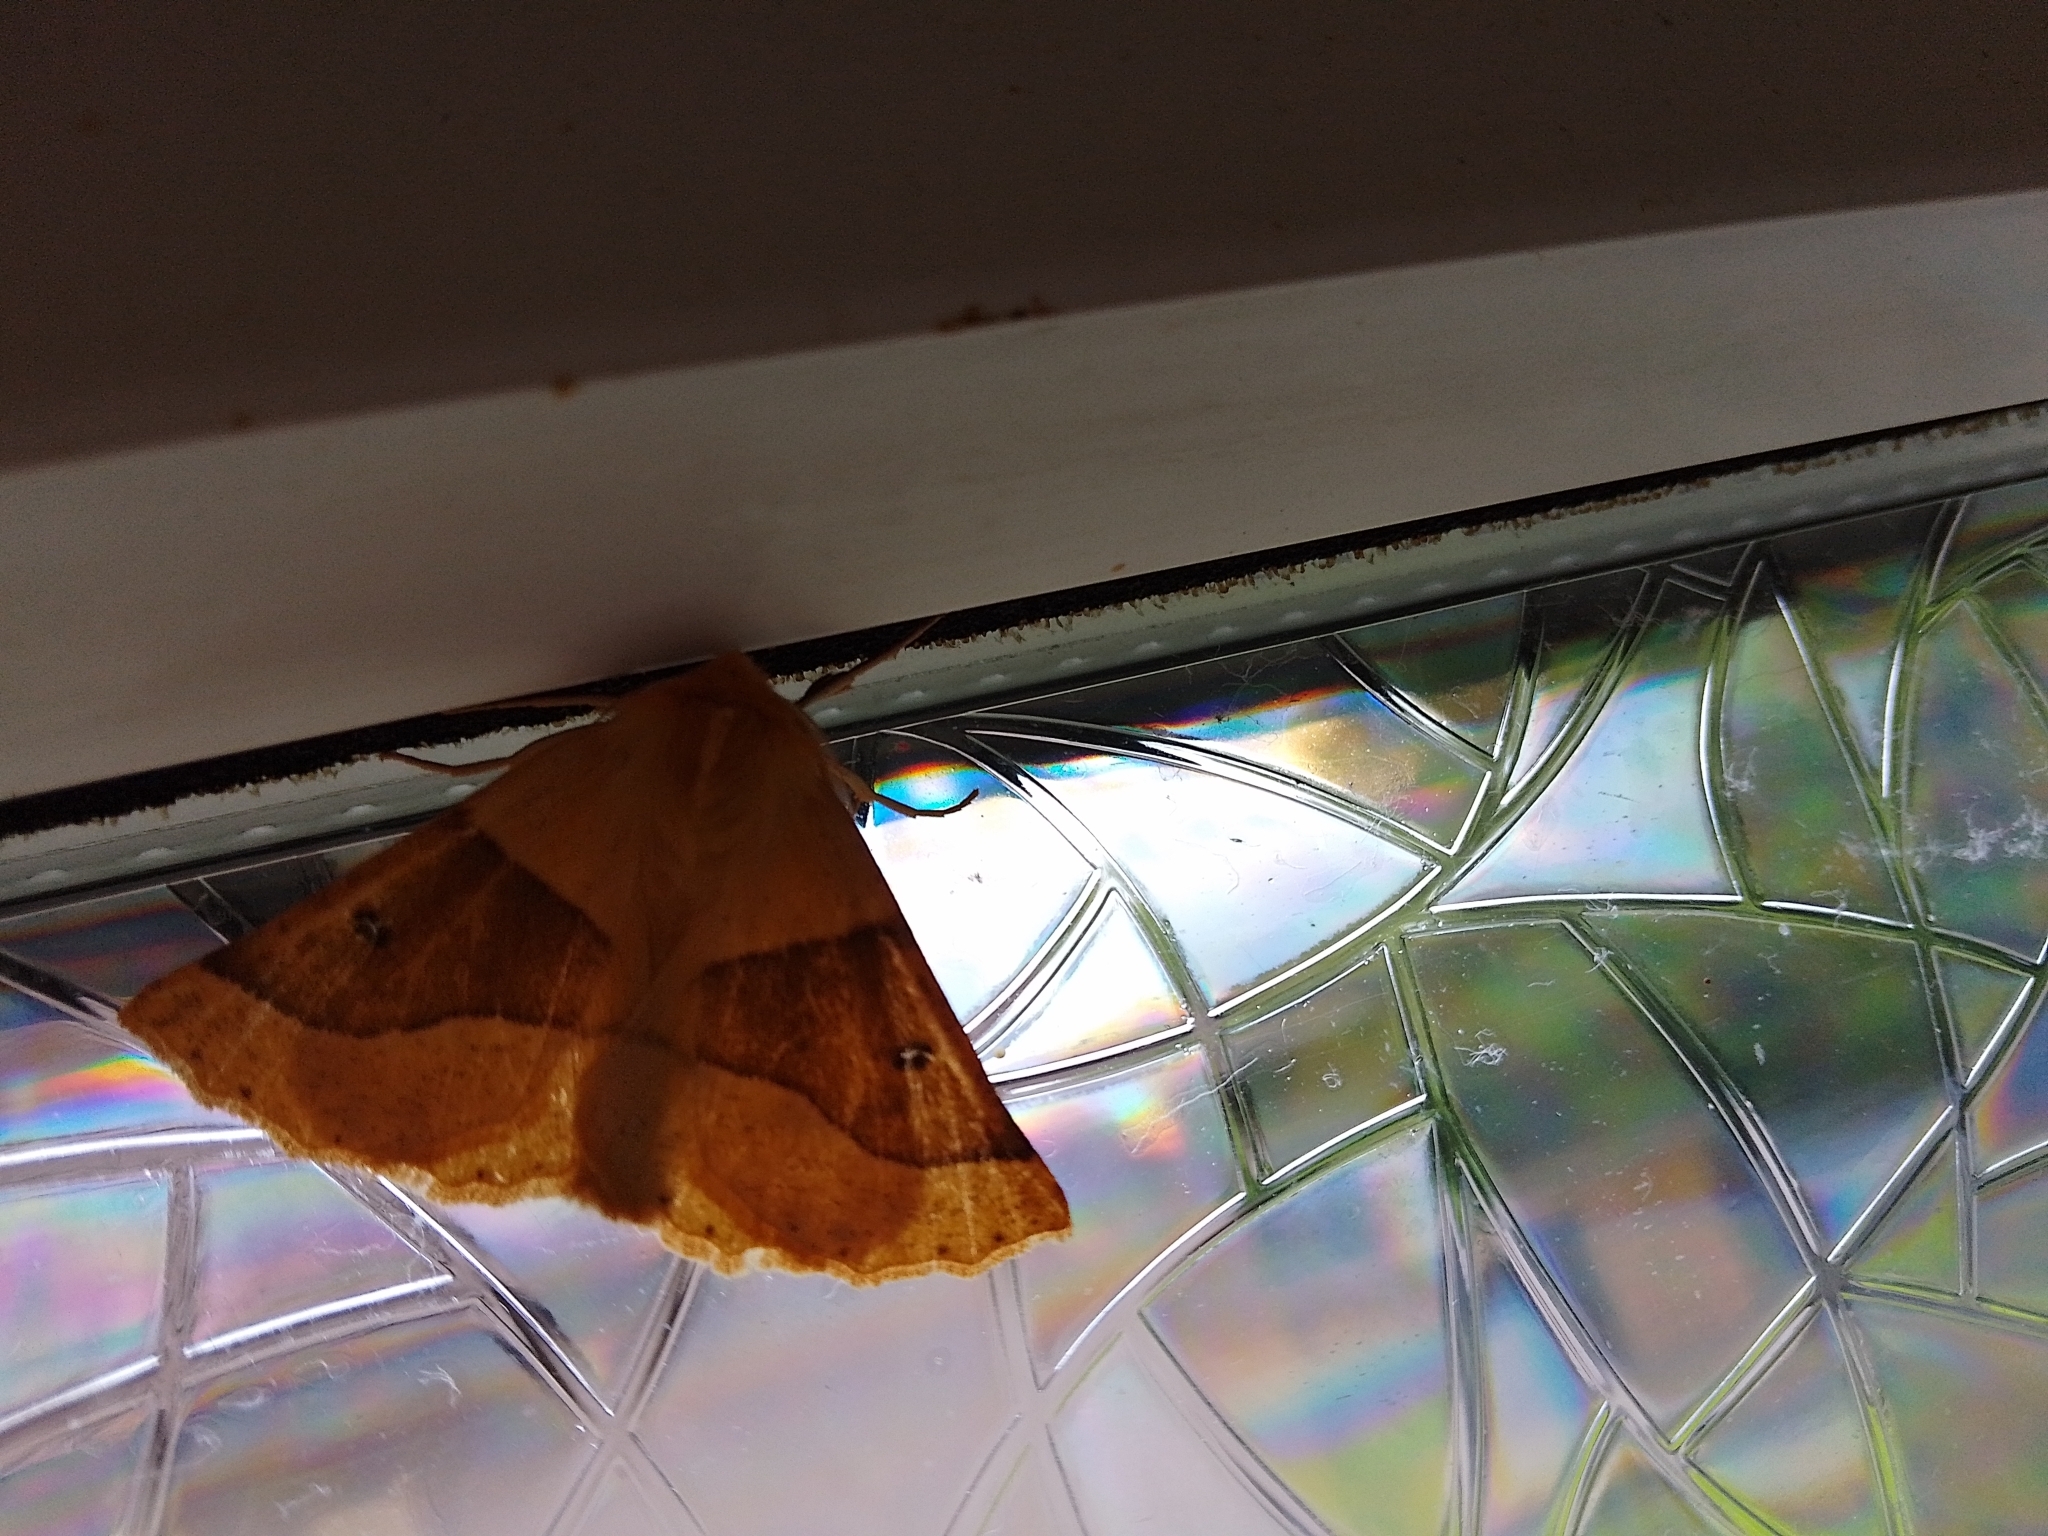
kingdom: Animalia
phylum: Arthropoda
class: Insecta
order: Lepidoptera
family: Geometridae
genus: Crocallis
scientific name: Crocallis elinguaria
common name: Scalloped oak
